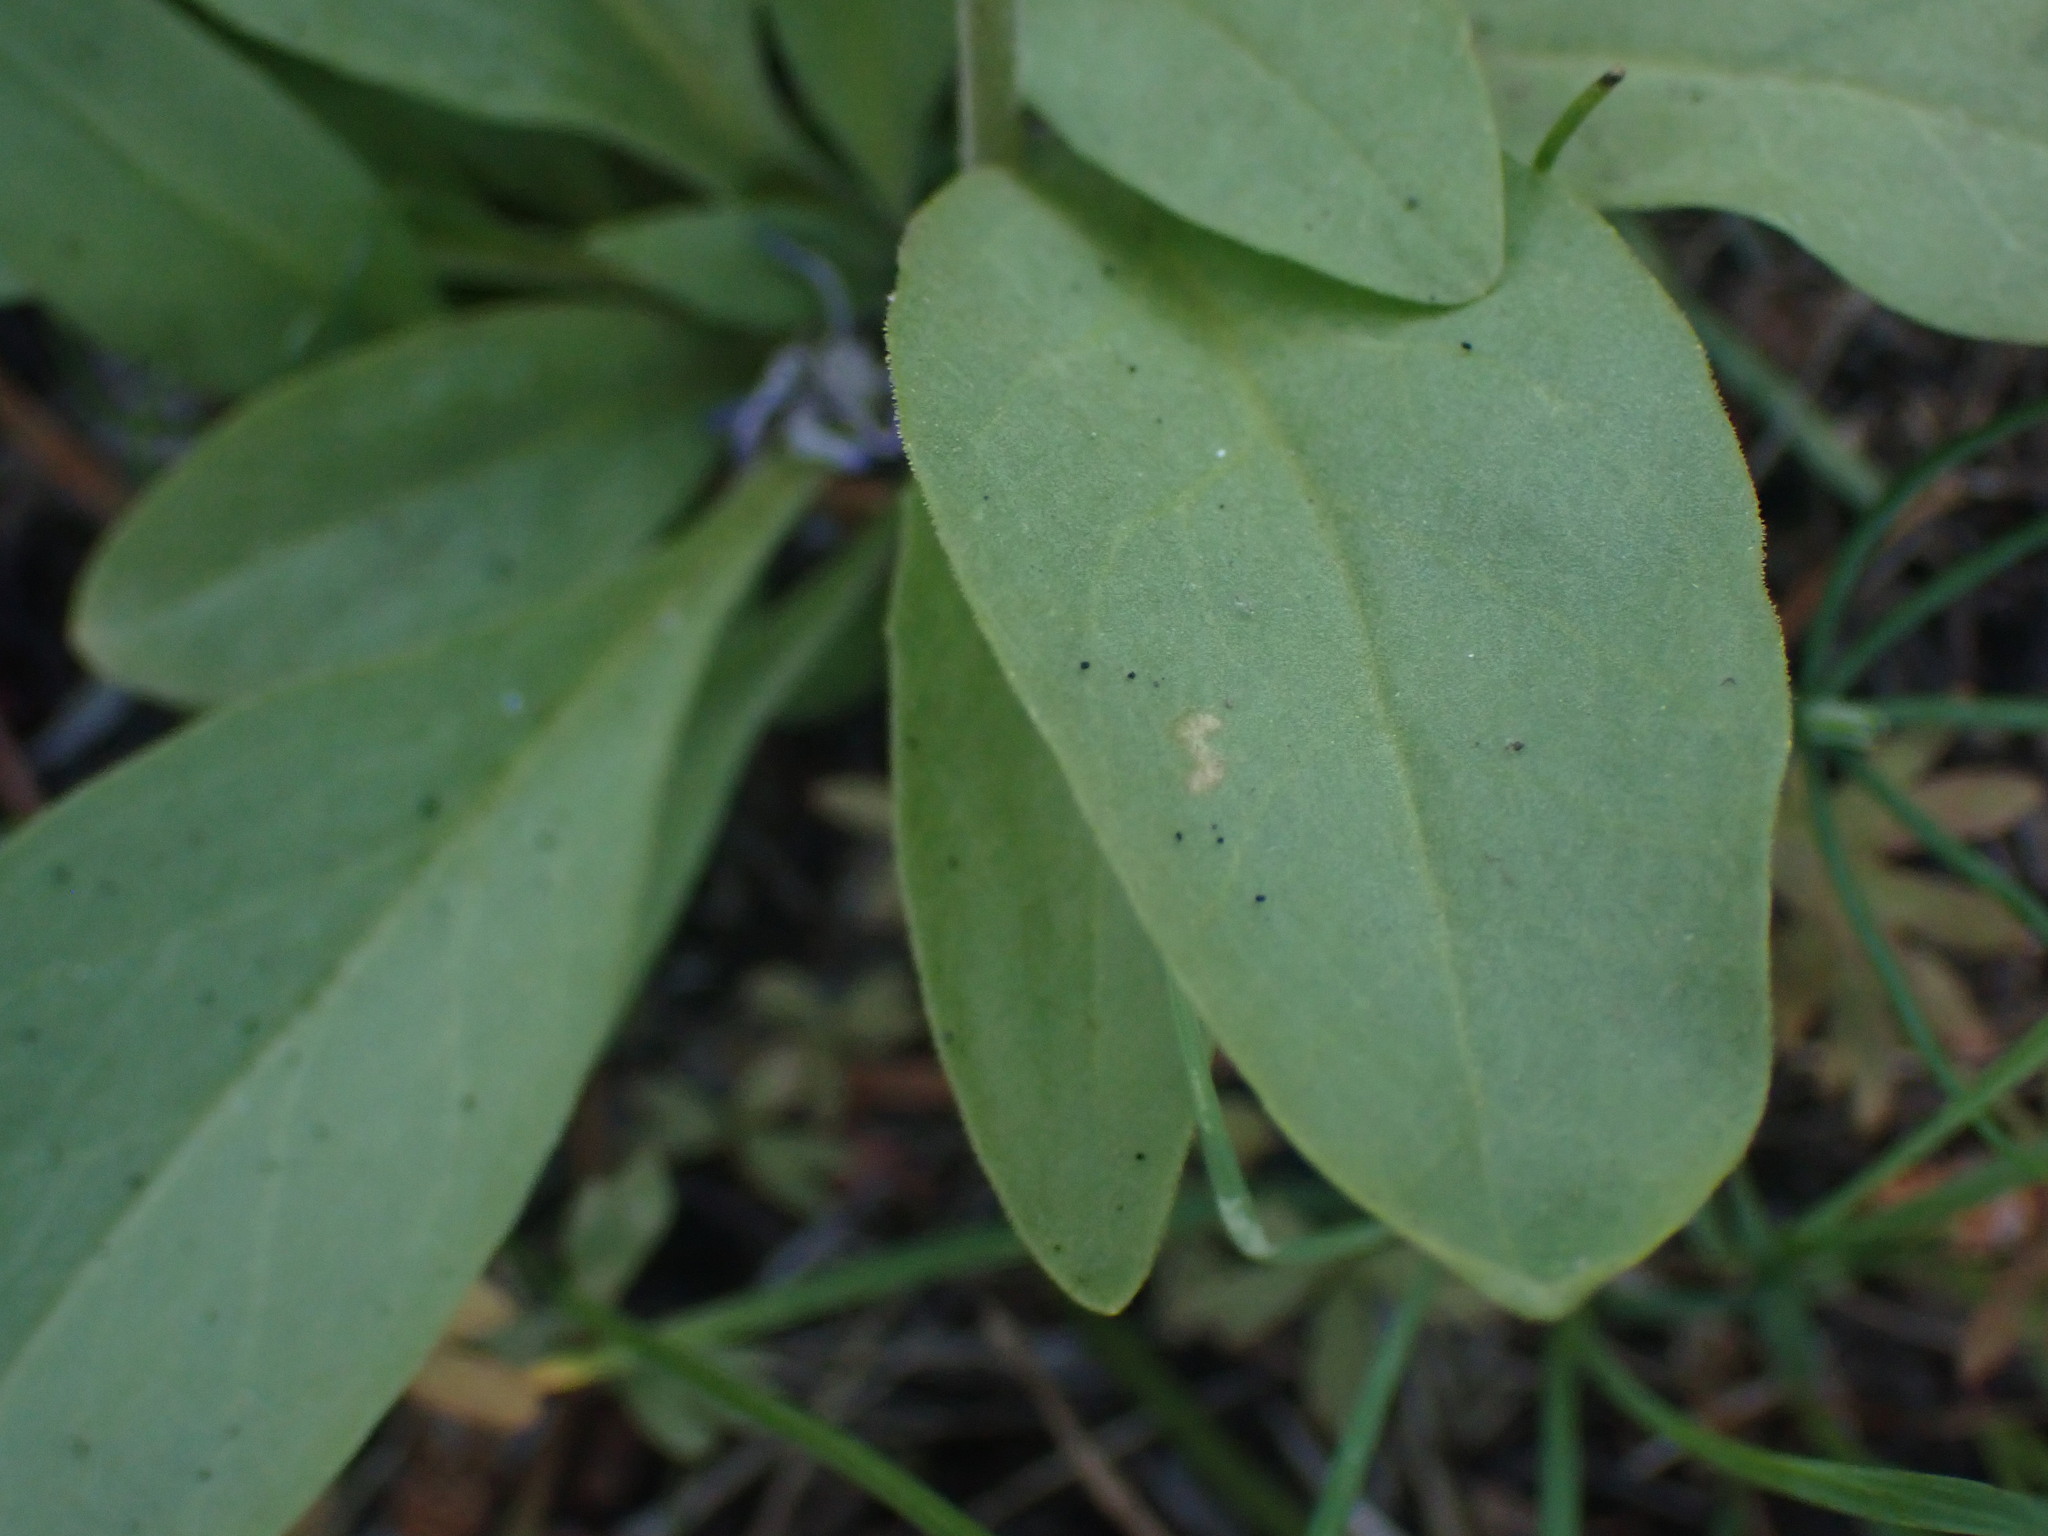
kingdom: Plantae
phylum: Tracheophyta
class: Magnoliopsida
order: Ericales
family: Primulaceae
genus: Dodecatheon
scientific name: Dodecatheon pulchellum
